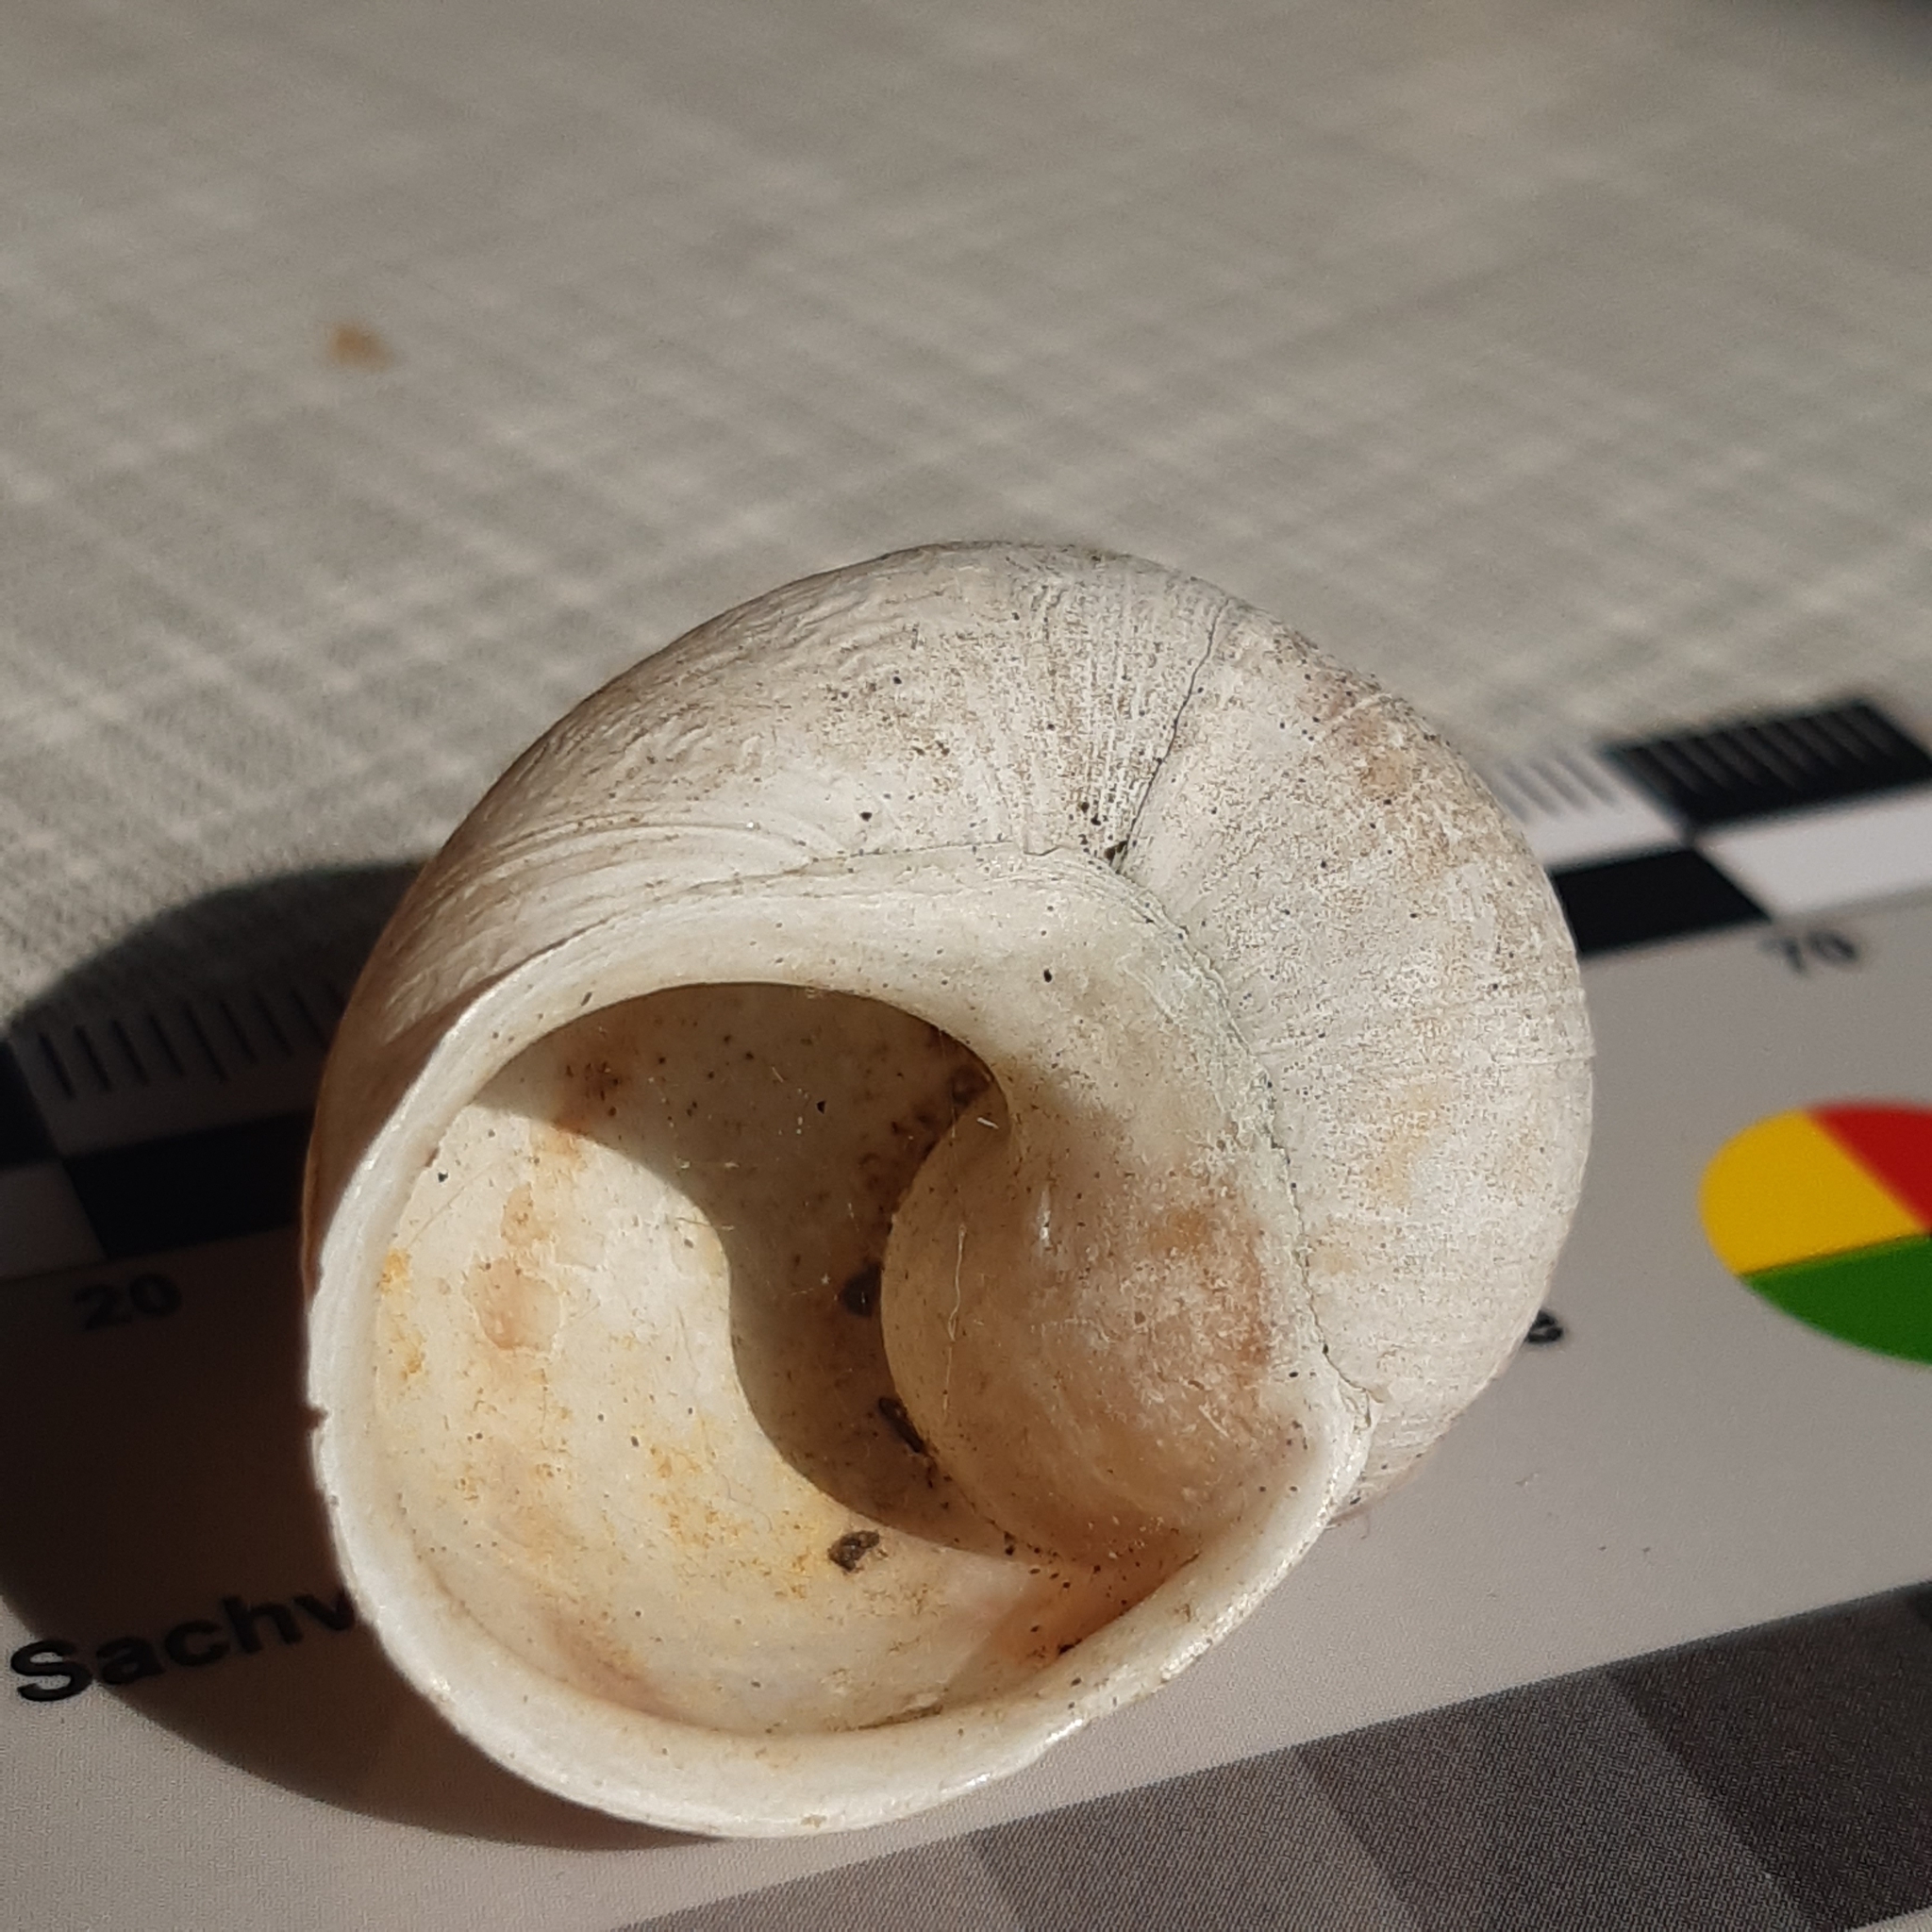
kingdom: Animalia
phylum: Mollusca
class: Gastropoda
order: Stylommatophora
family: Helicidae
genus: Cornu
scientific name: Cornu aspersum
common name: Brown garden snail
